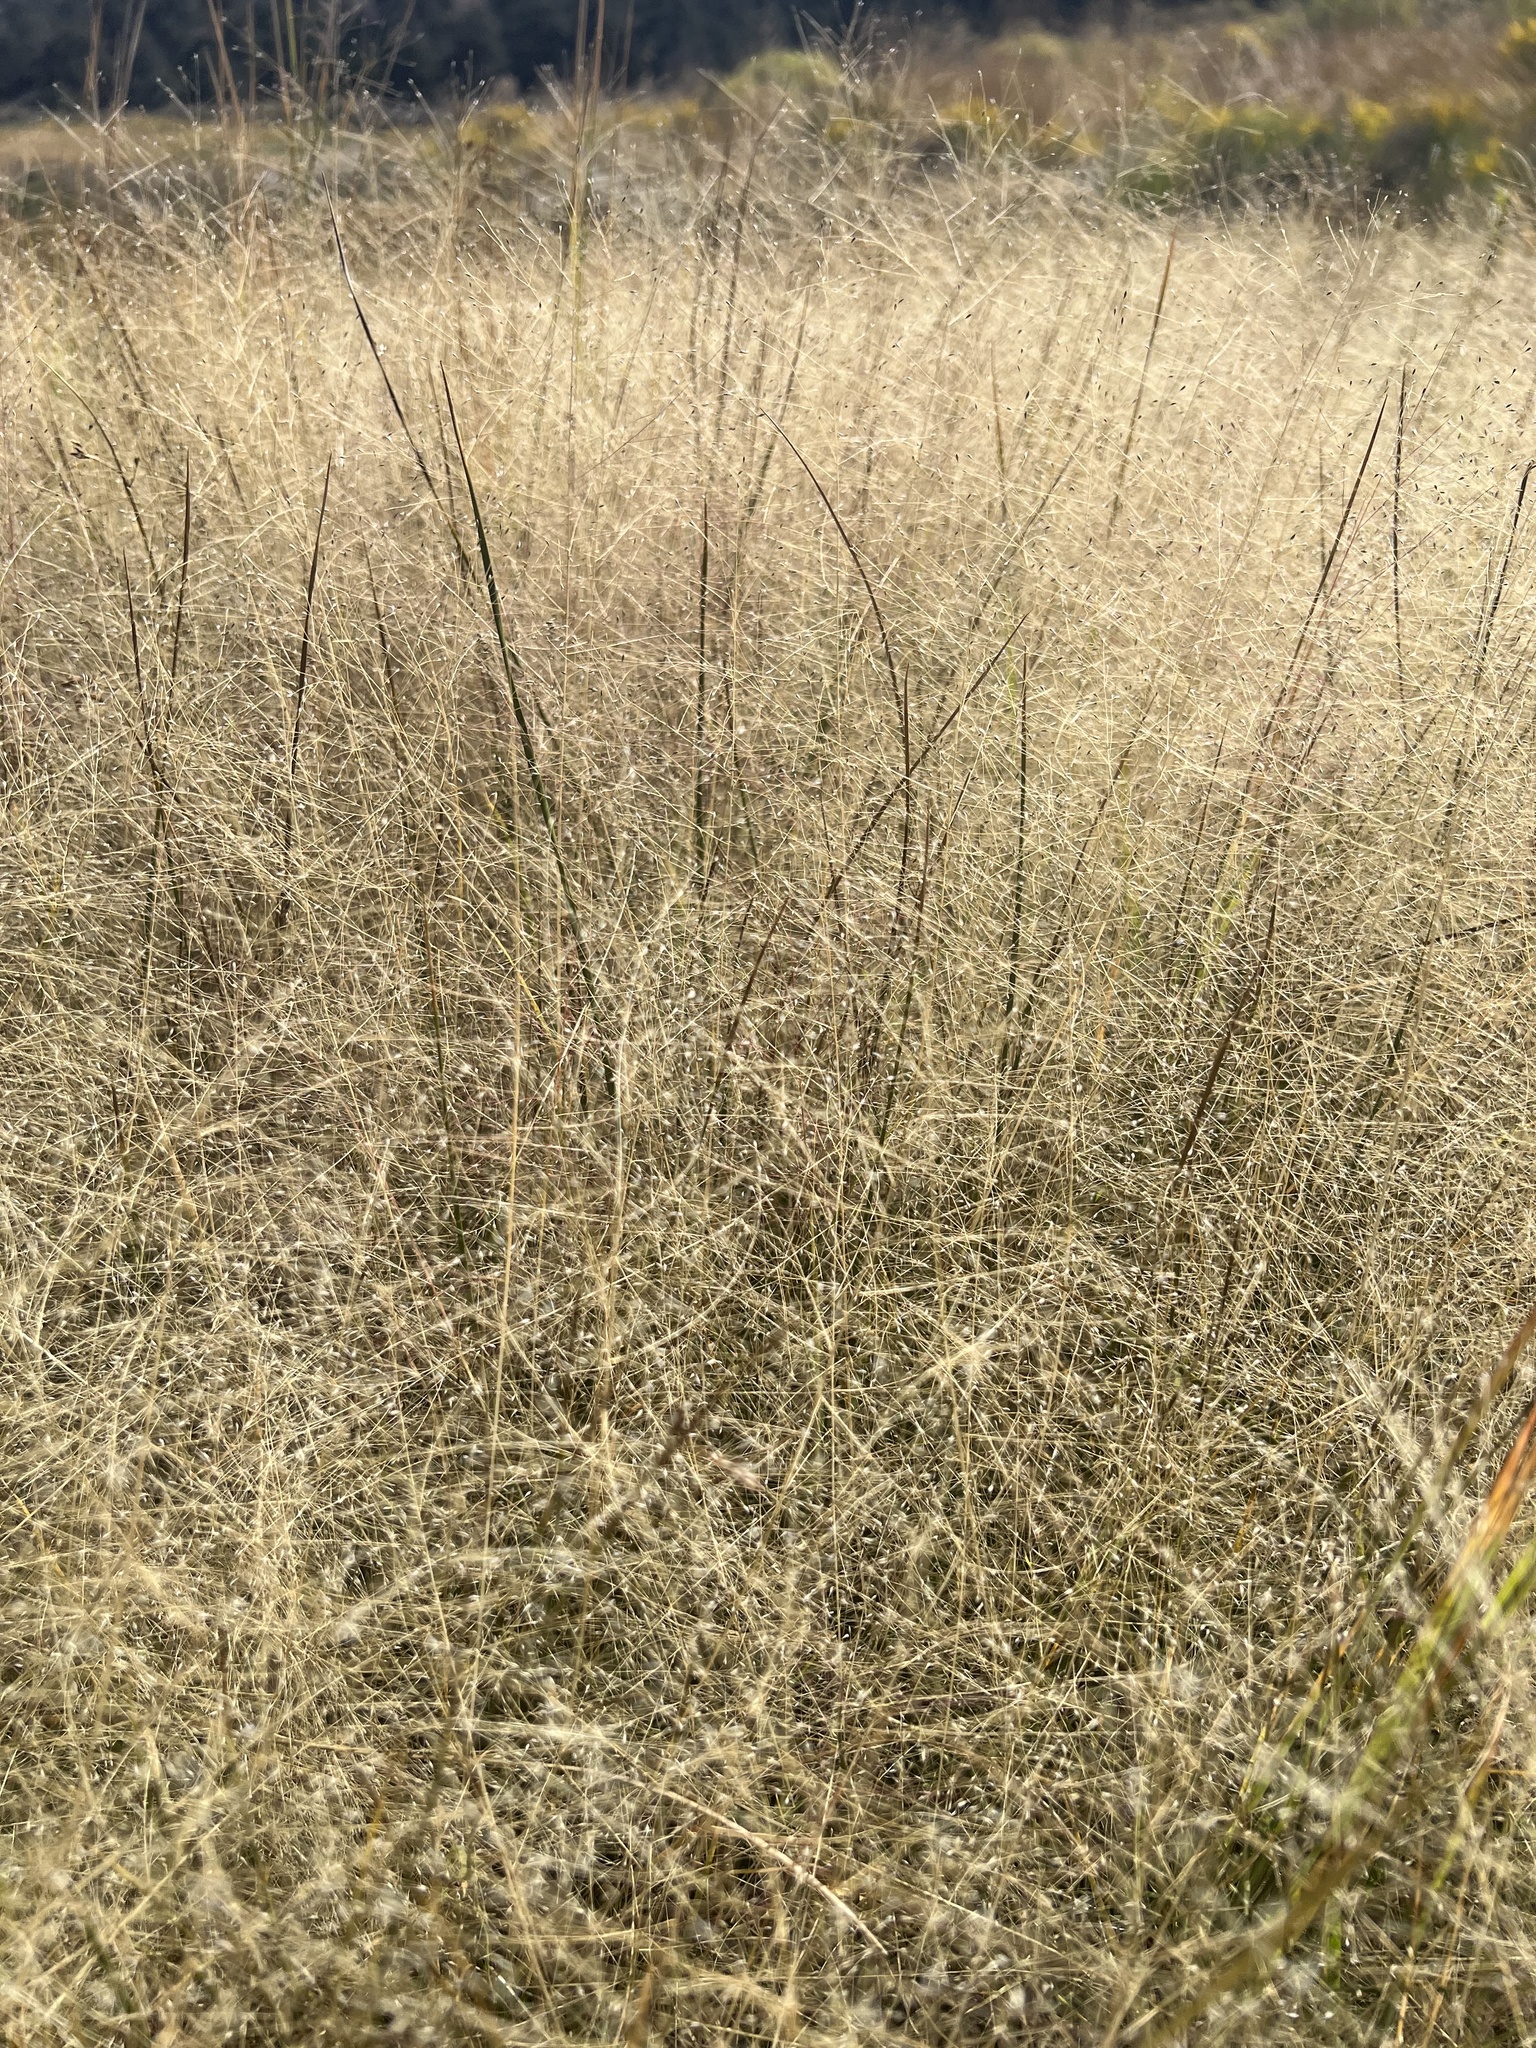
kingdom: Plantae
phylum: Tracheophyta
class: Liliopsida
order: Poales
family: Poaceae
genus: Muhlenbergia
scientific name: Muhlenbergia asperifolia
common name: Alkali muhly
